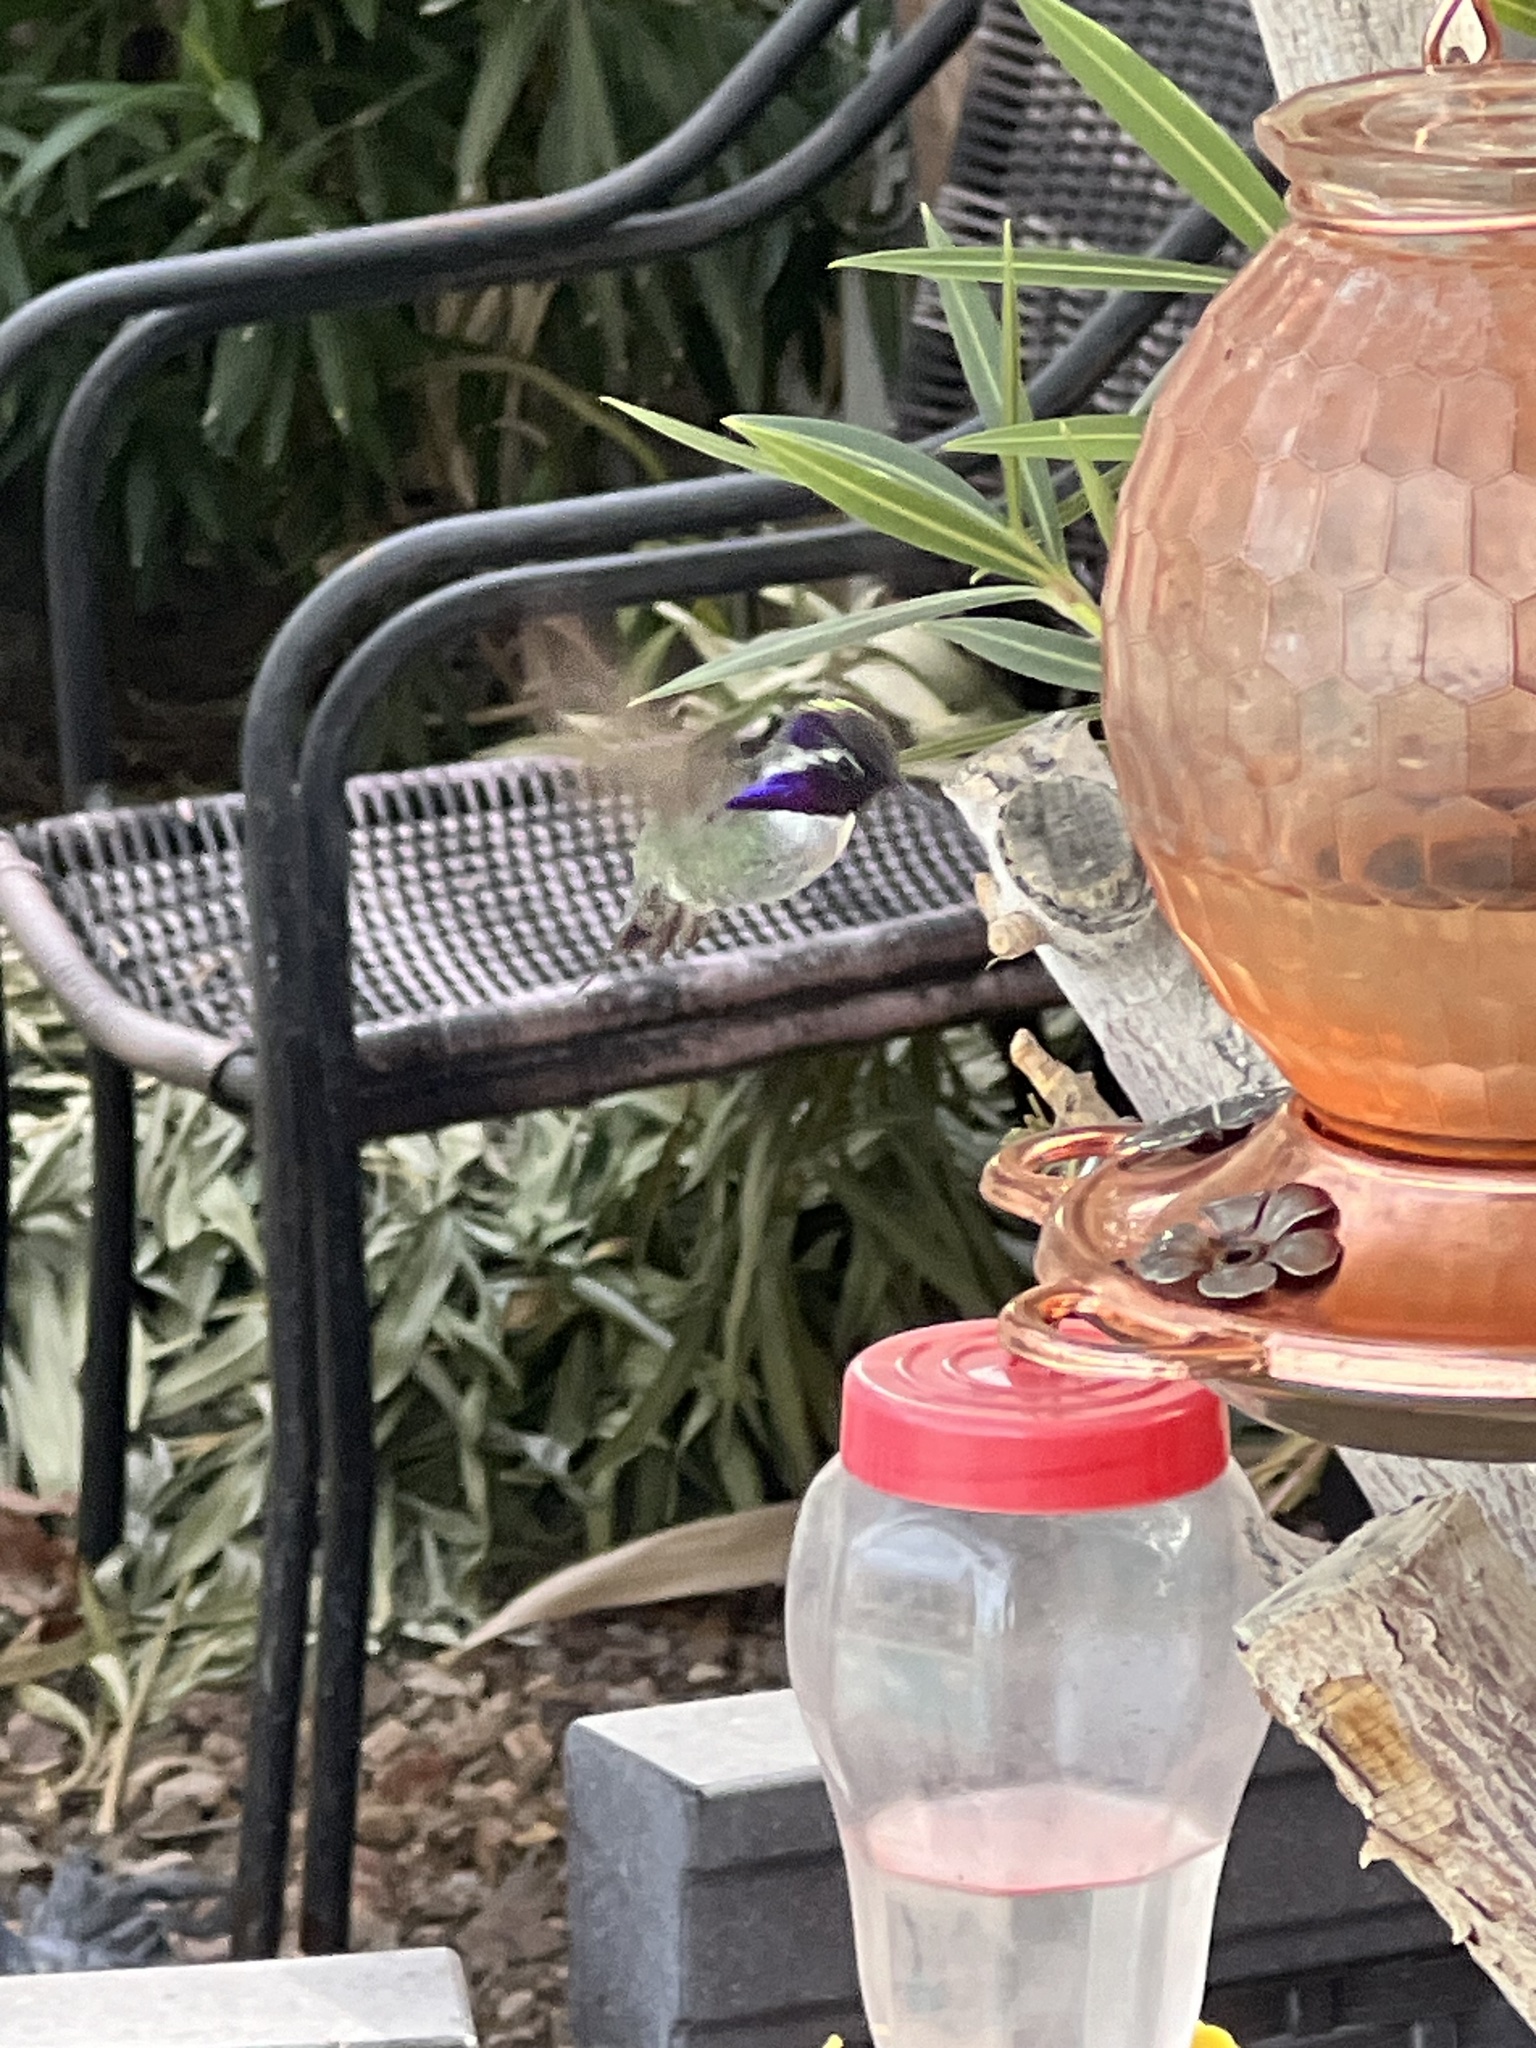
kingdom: Animalia
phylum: Chordata
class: Aves
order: Apodiformes
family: Trochilidae
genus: Calypte
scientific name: Calypte costae
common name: Costa's hummingbird
